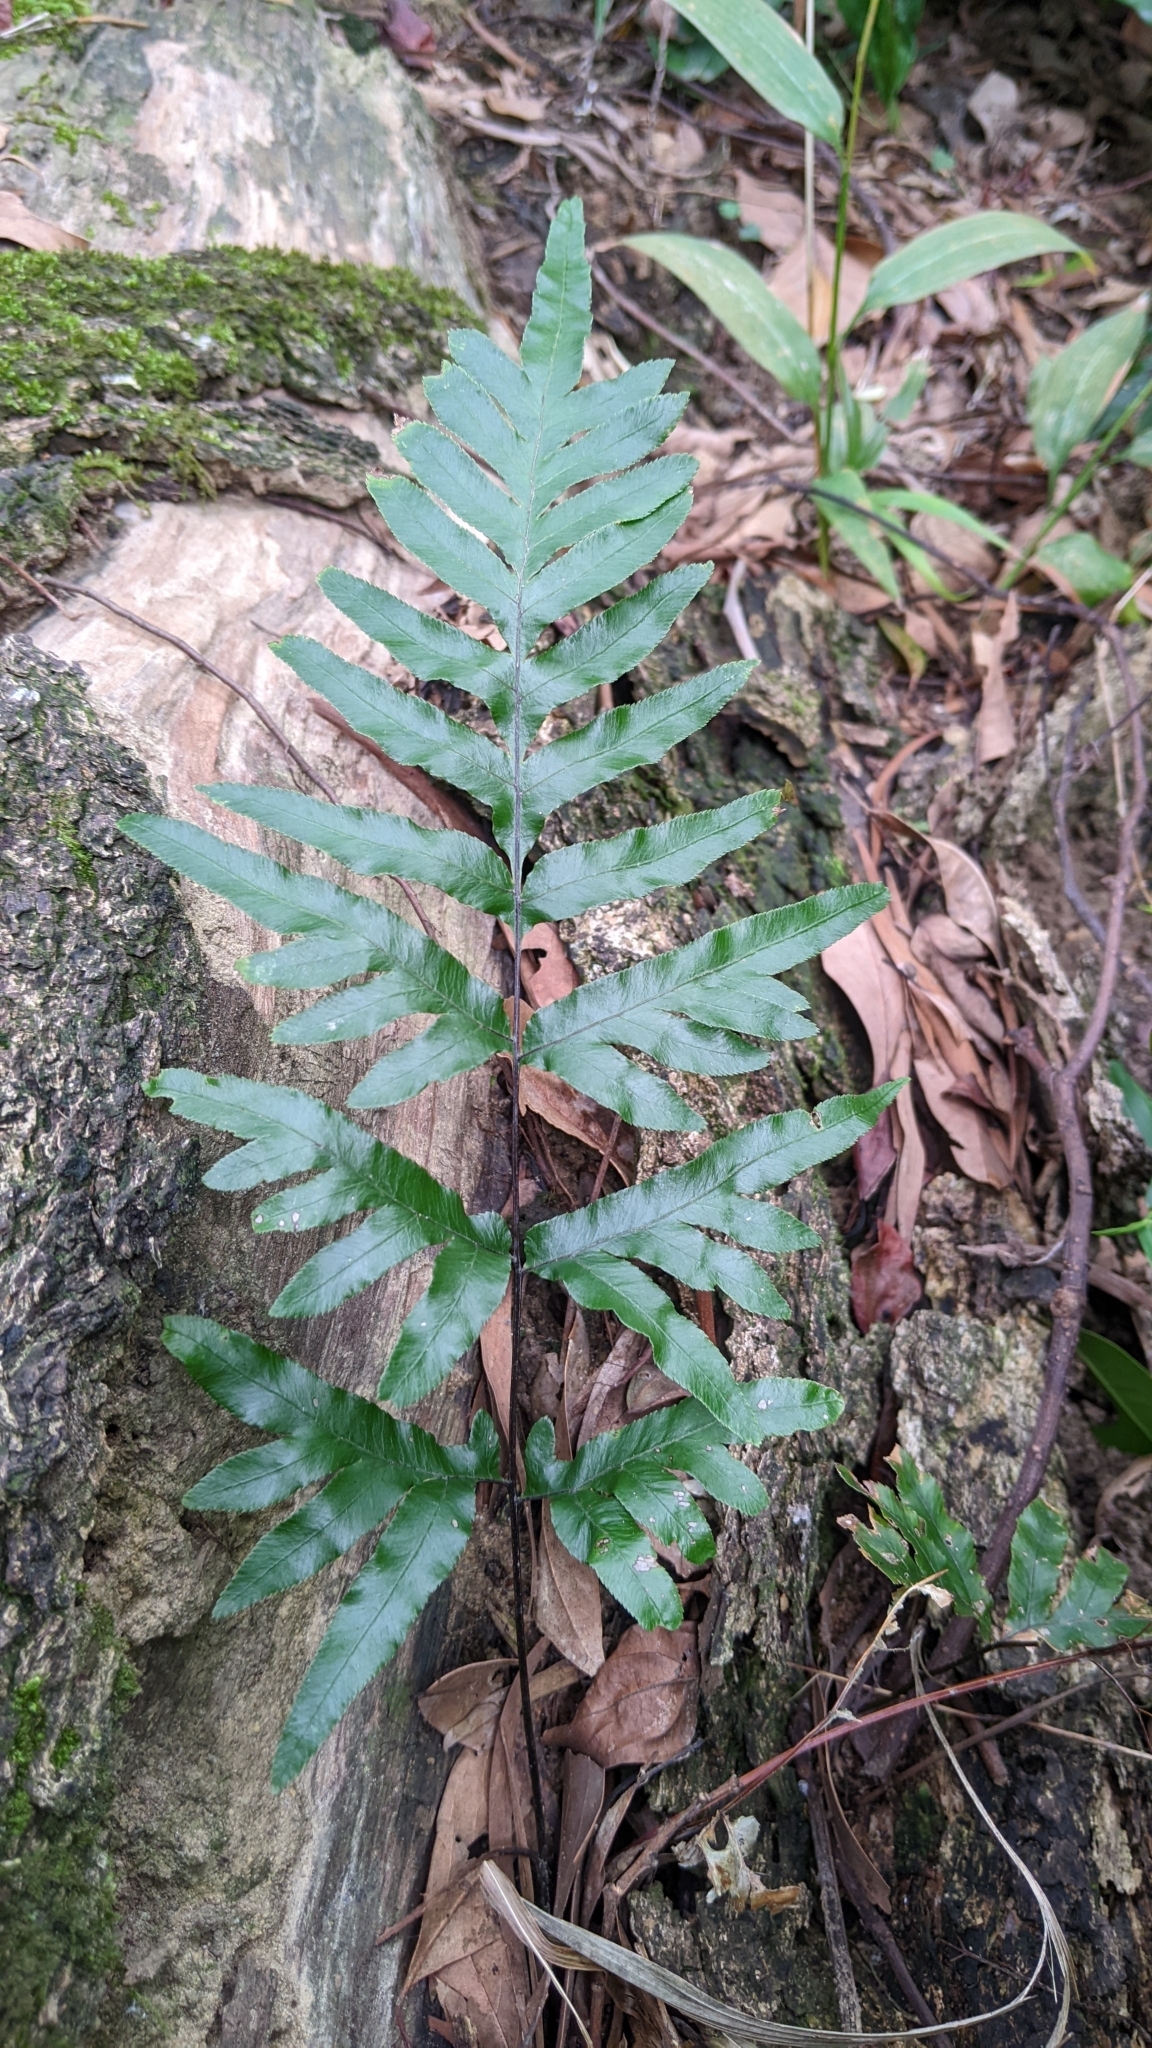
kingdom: Plantae
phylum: Tracheophyta
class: Polypodiopsida
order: Polypodiales
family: Pteridaceae
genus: Pteris
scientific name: Pteris semipinnata
